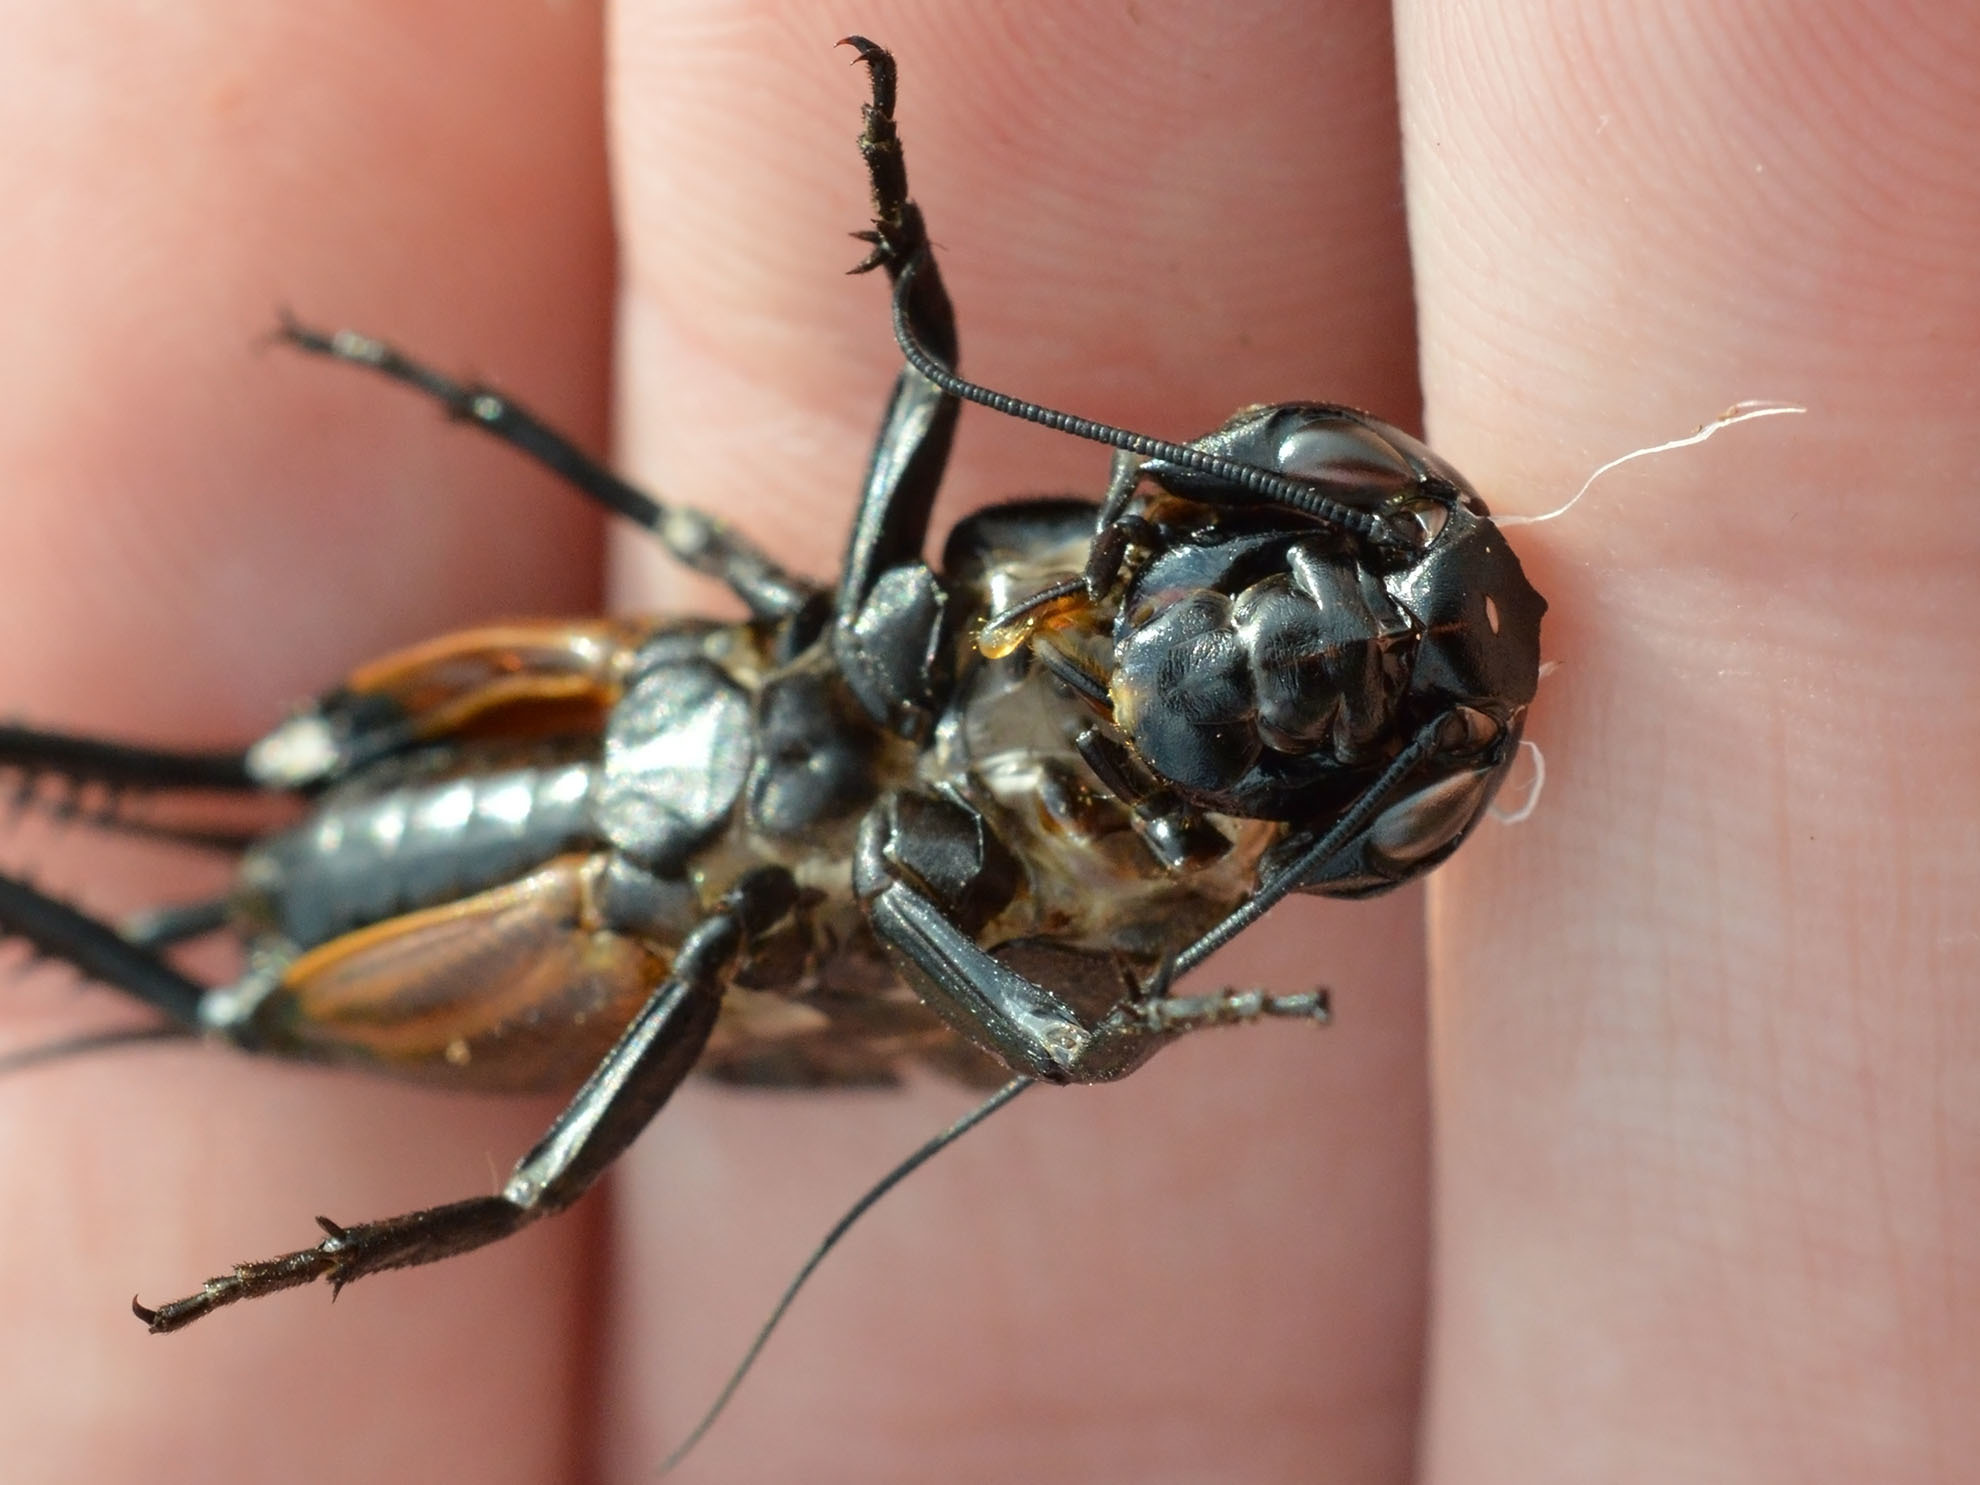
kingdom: Animalia
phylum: Arthropoda
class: Insecta
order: Orthoptera
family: Gryllidae
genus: Gryllus
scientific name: Gryllus campestris
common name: Field cricket
